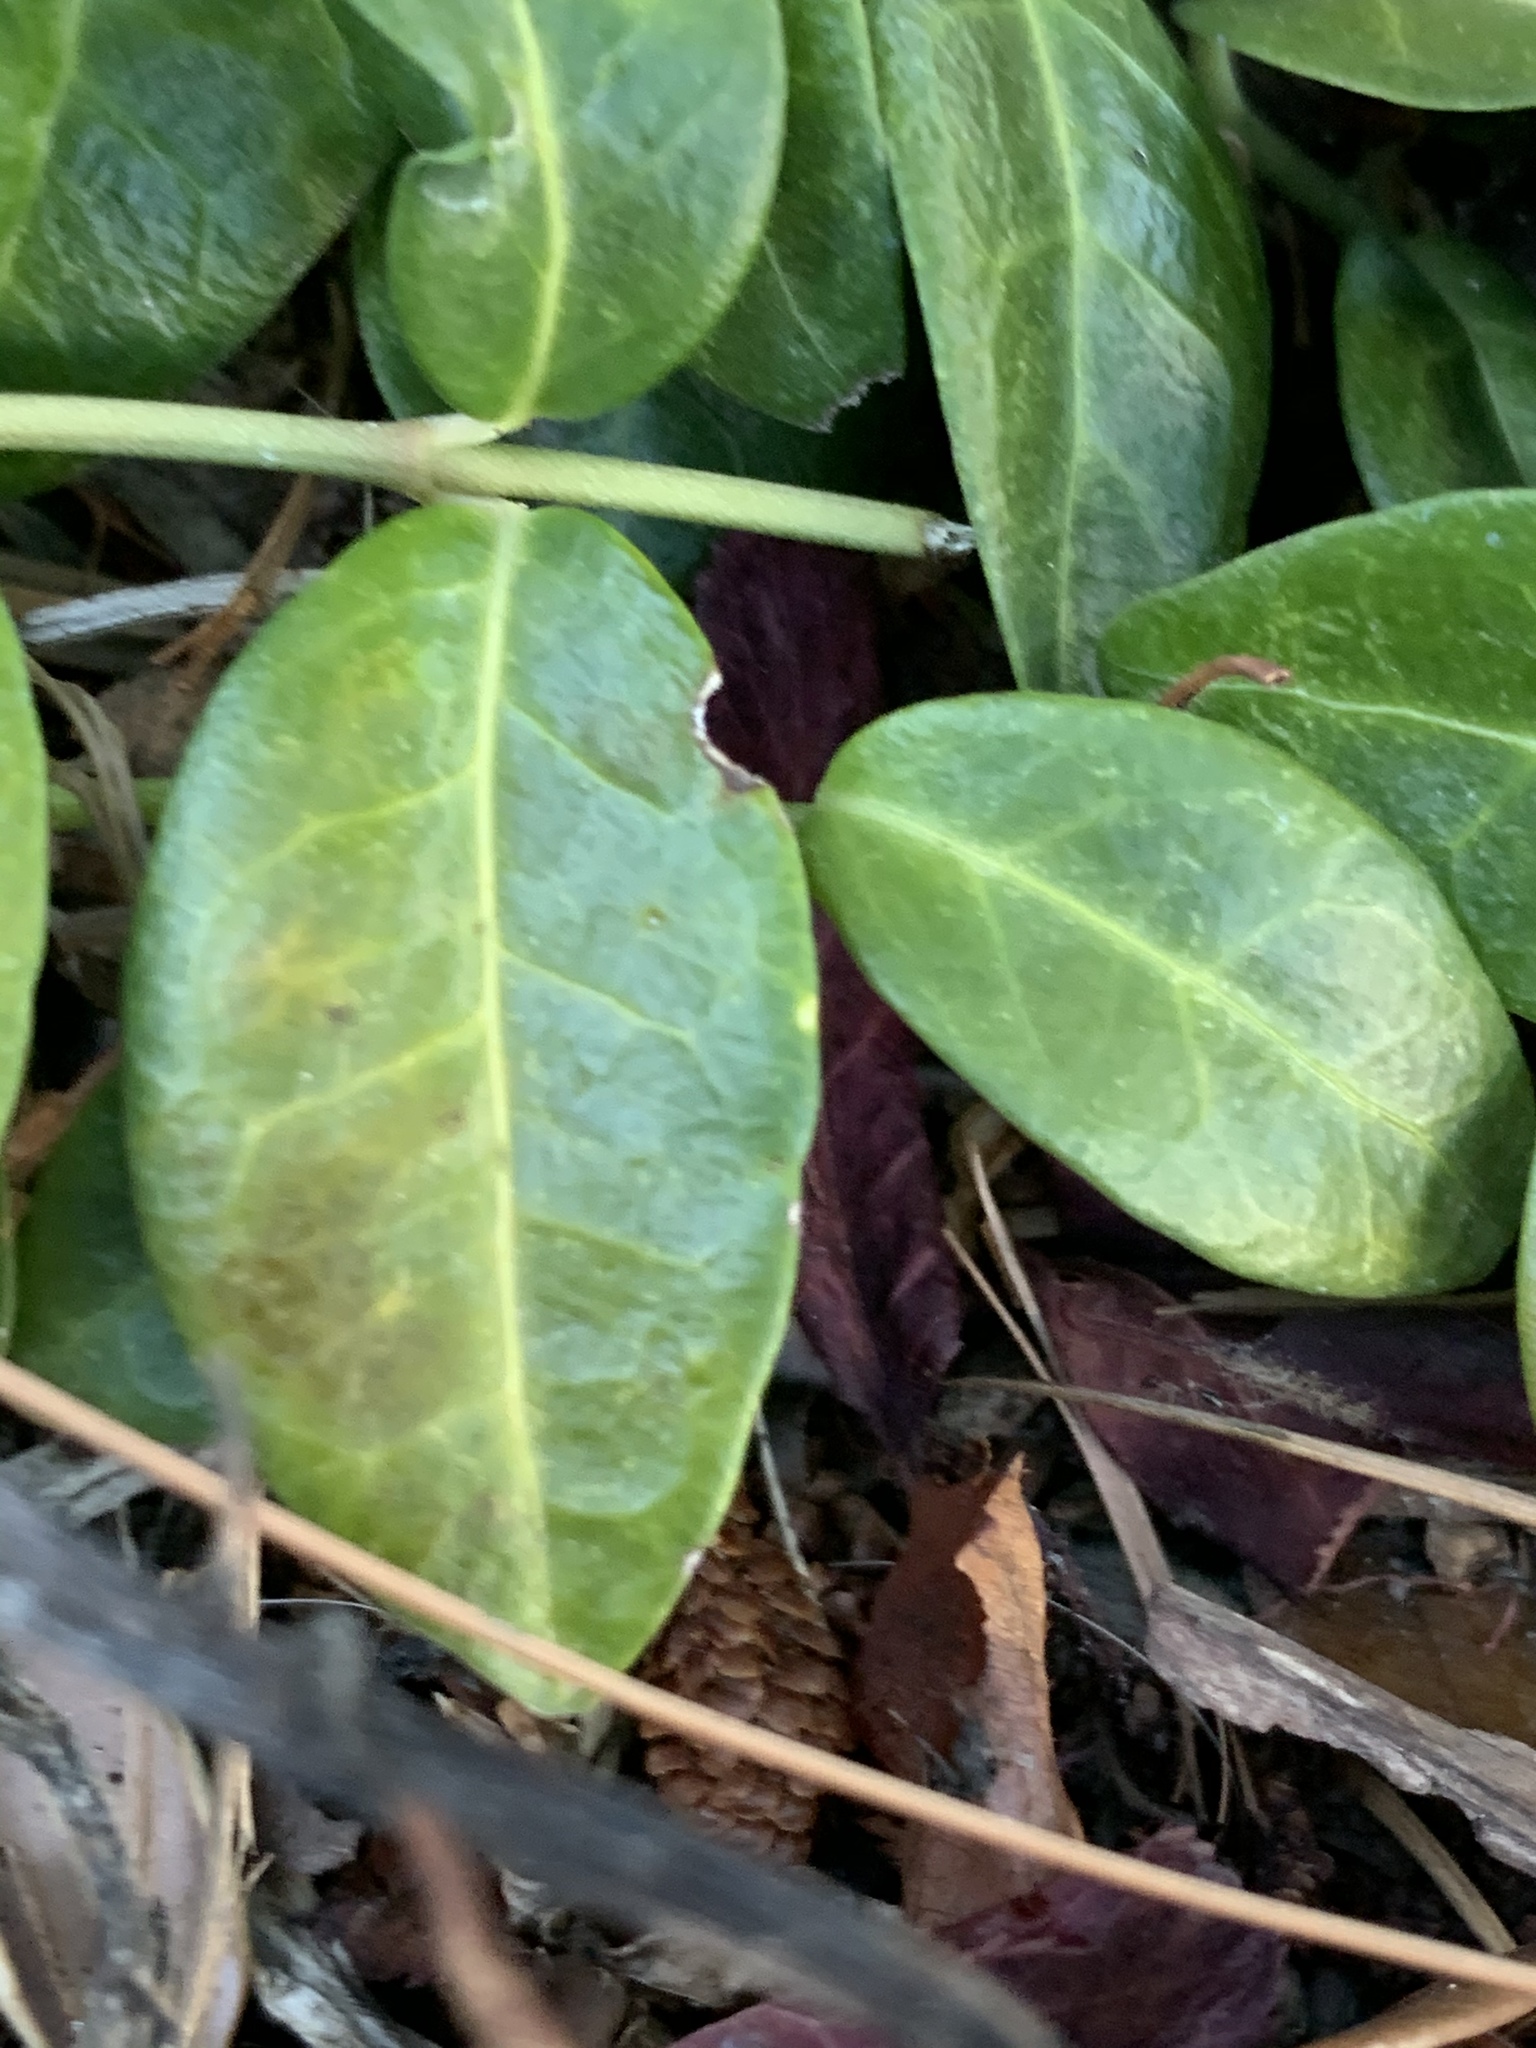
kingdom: Plantae
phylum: Tracheophyta
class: Magnoliopsida
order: Gentianales
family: Apocynaceae
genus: Vinca
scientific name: Vinca minor
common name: Lesser periwinkle
